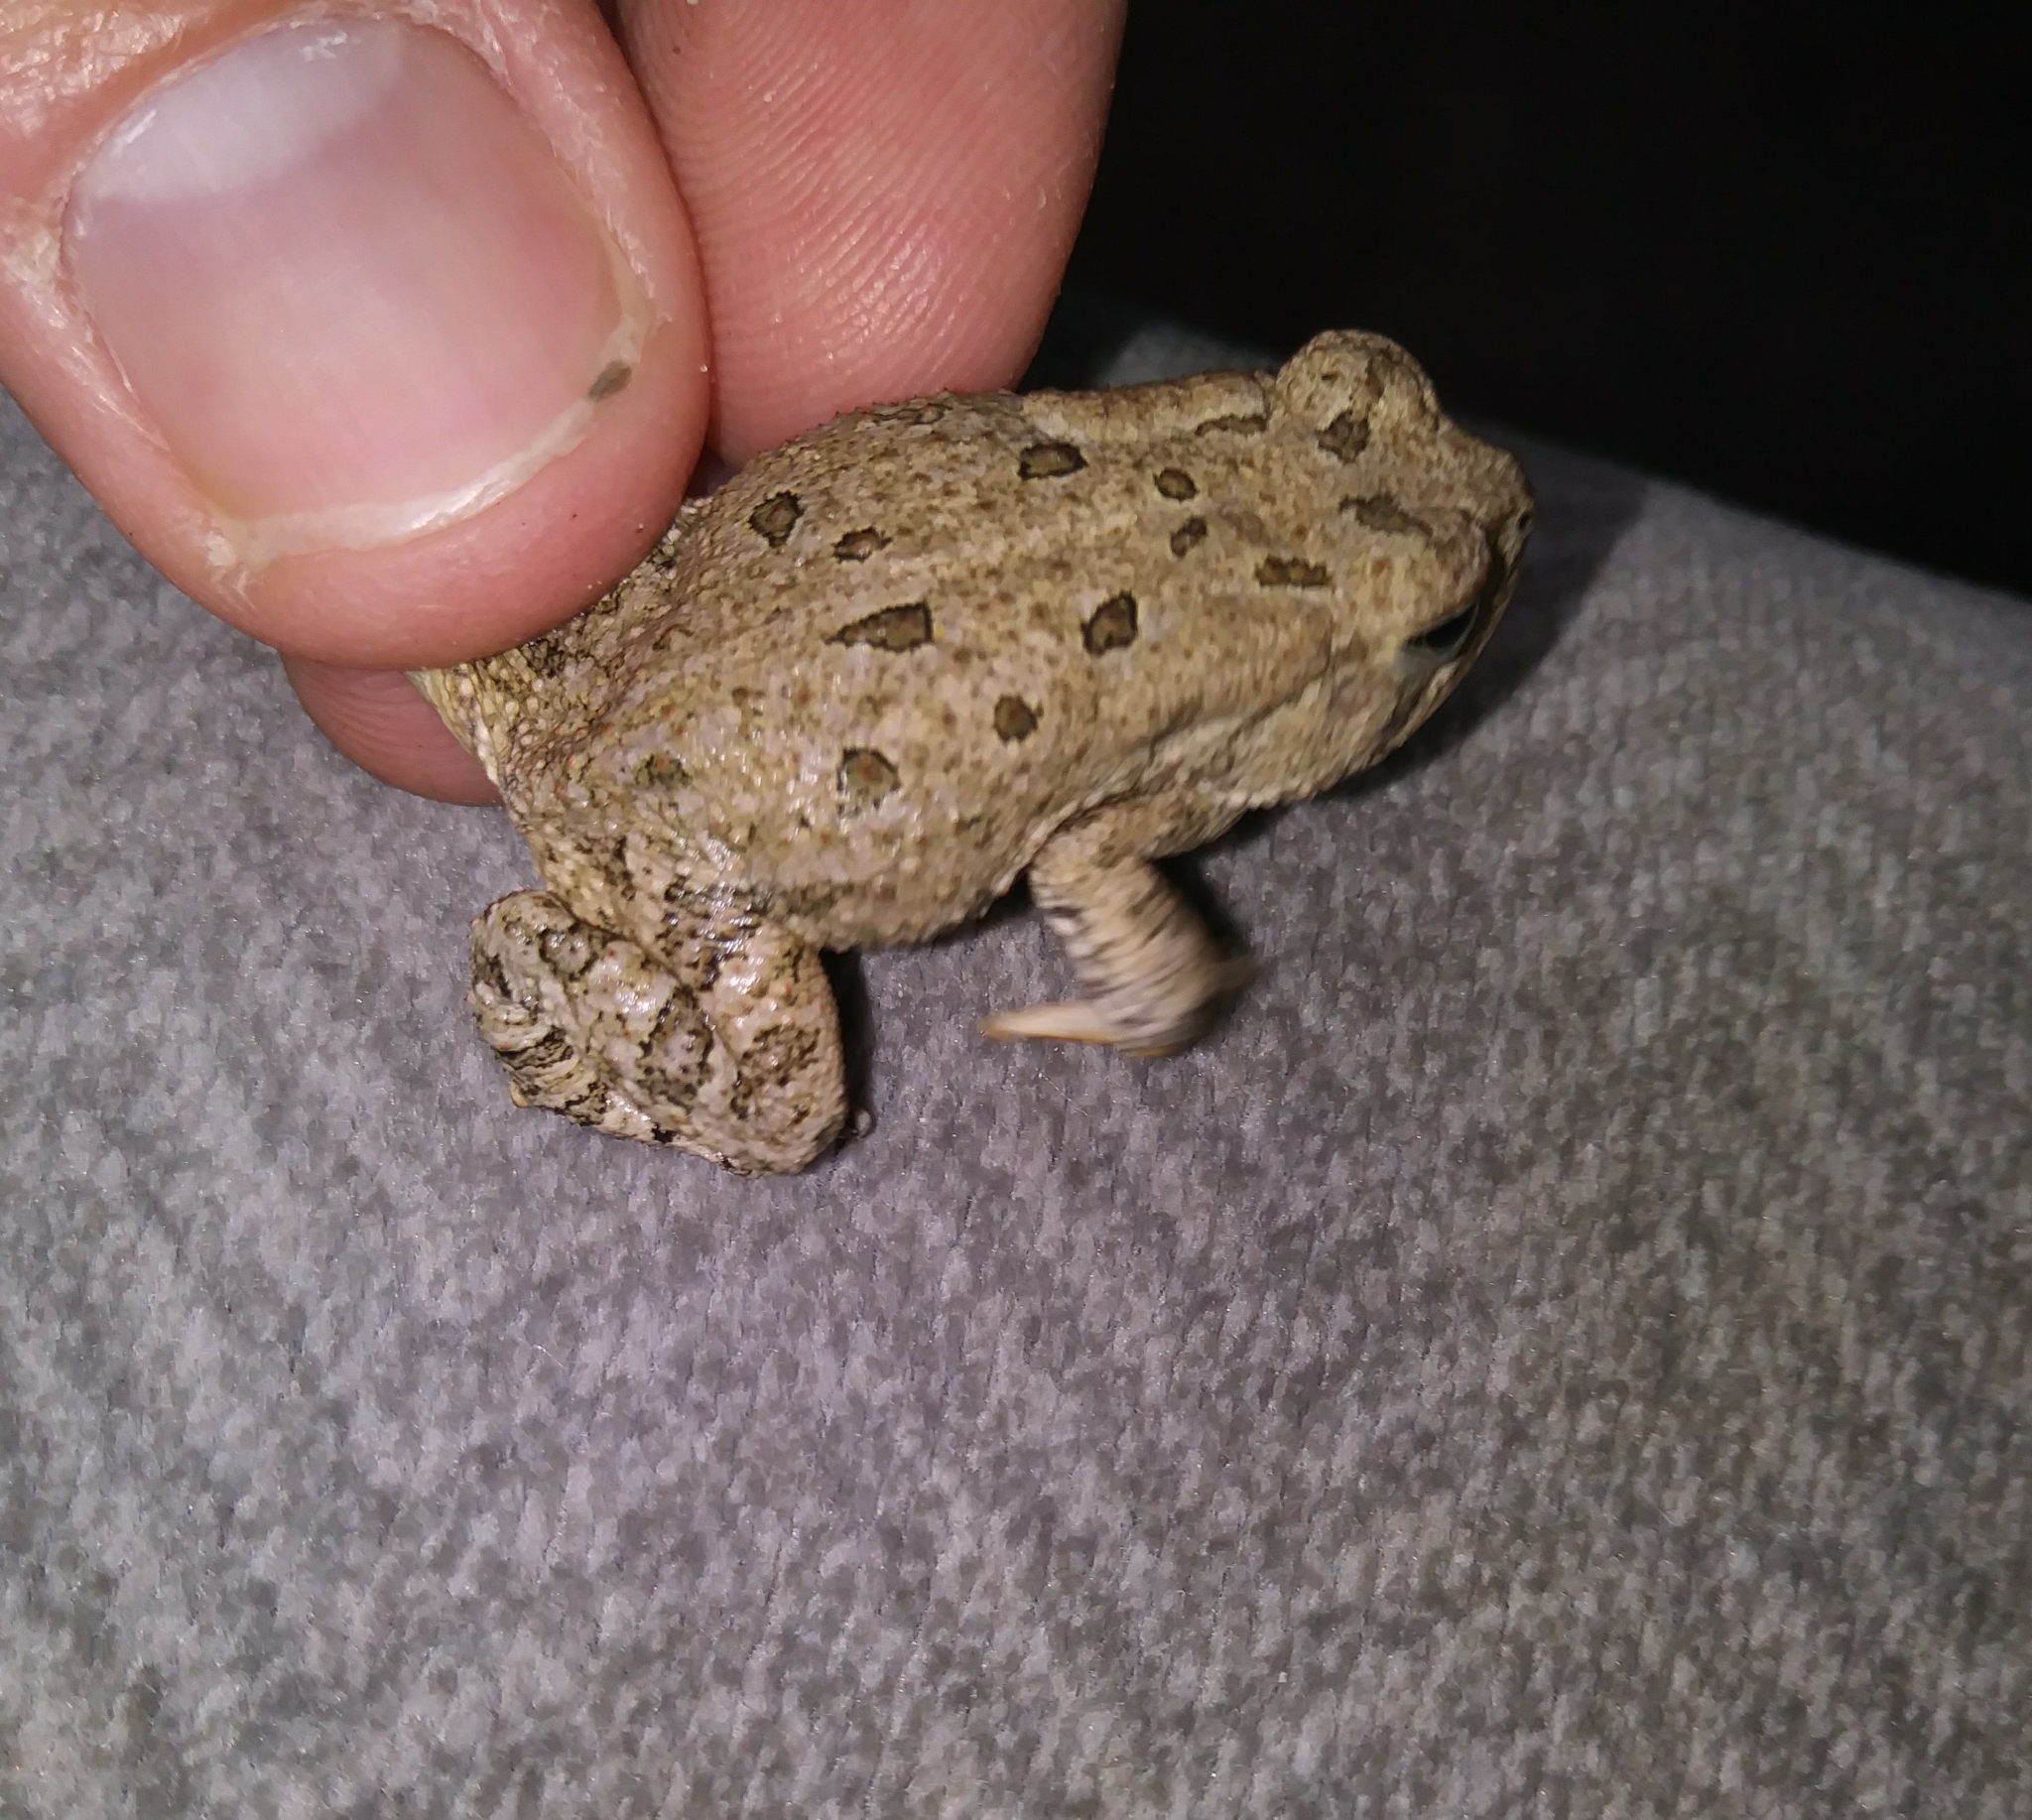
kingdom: Animalia
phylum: Chordata
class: Amphibia
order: Anura
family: Bufonidae
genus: Anaxyrus
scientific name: Anaxyrus fowleri
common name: Fowler's toad
